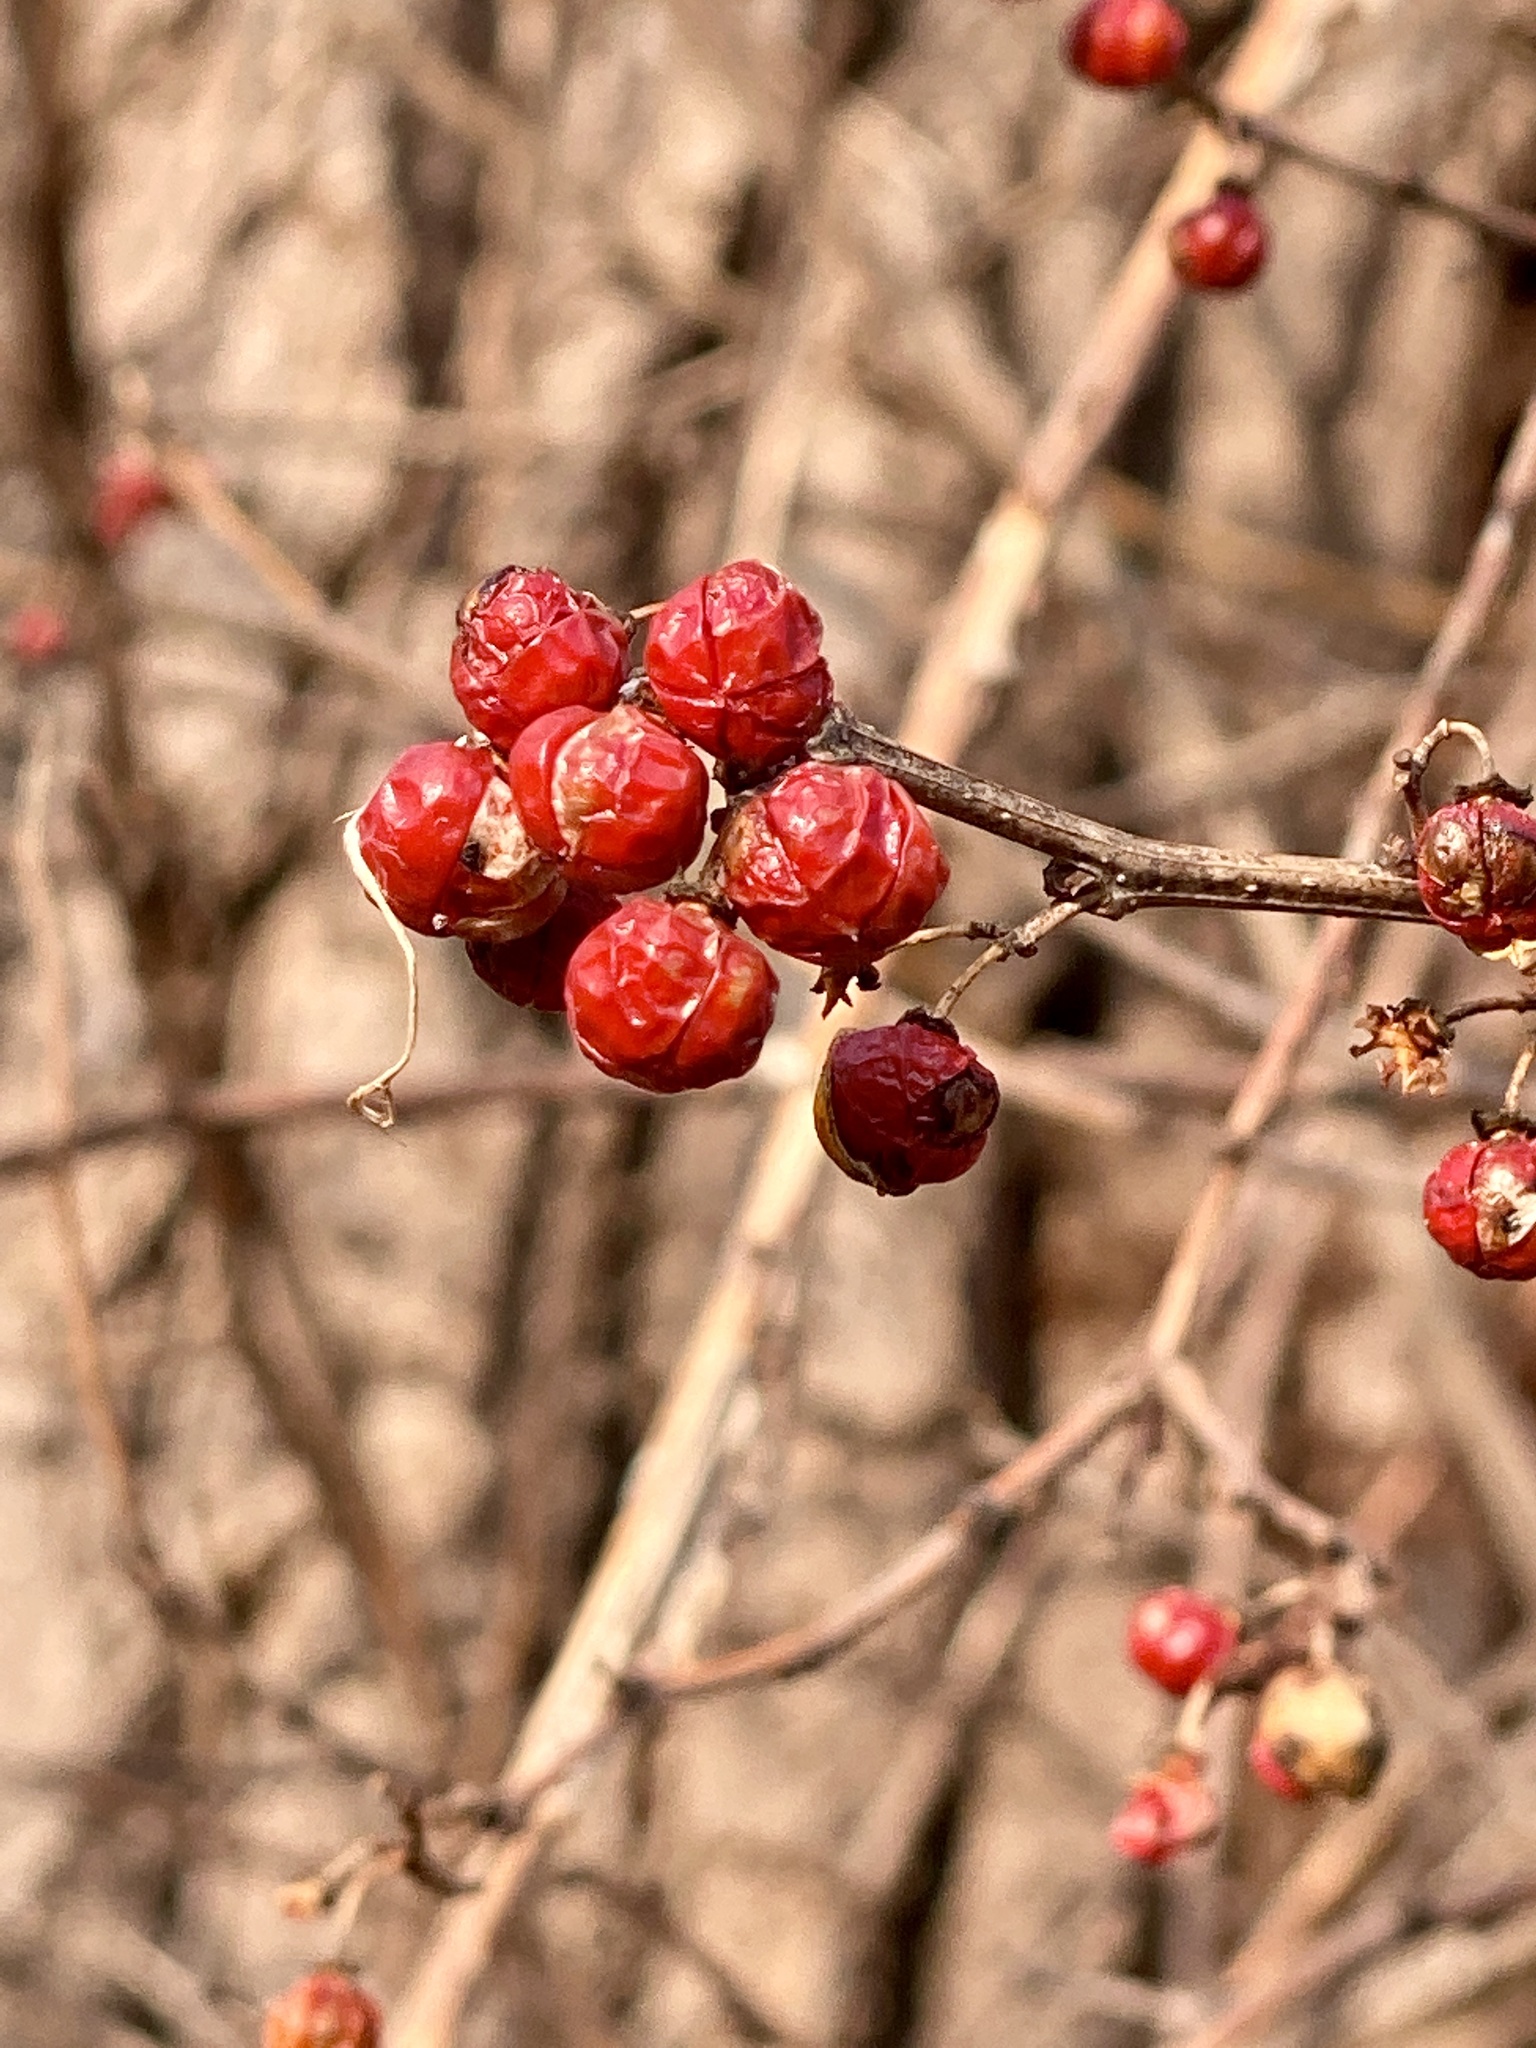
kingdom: Plantae
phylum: Tracheophyta
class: Magnoliopsida
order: Celastrales
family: Celastraceae
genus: Celastrus
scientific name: Celastrus orbiculatus
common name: Oriental bittersweet
